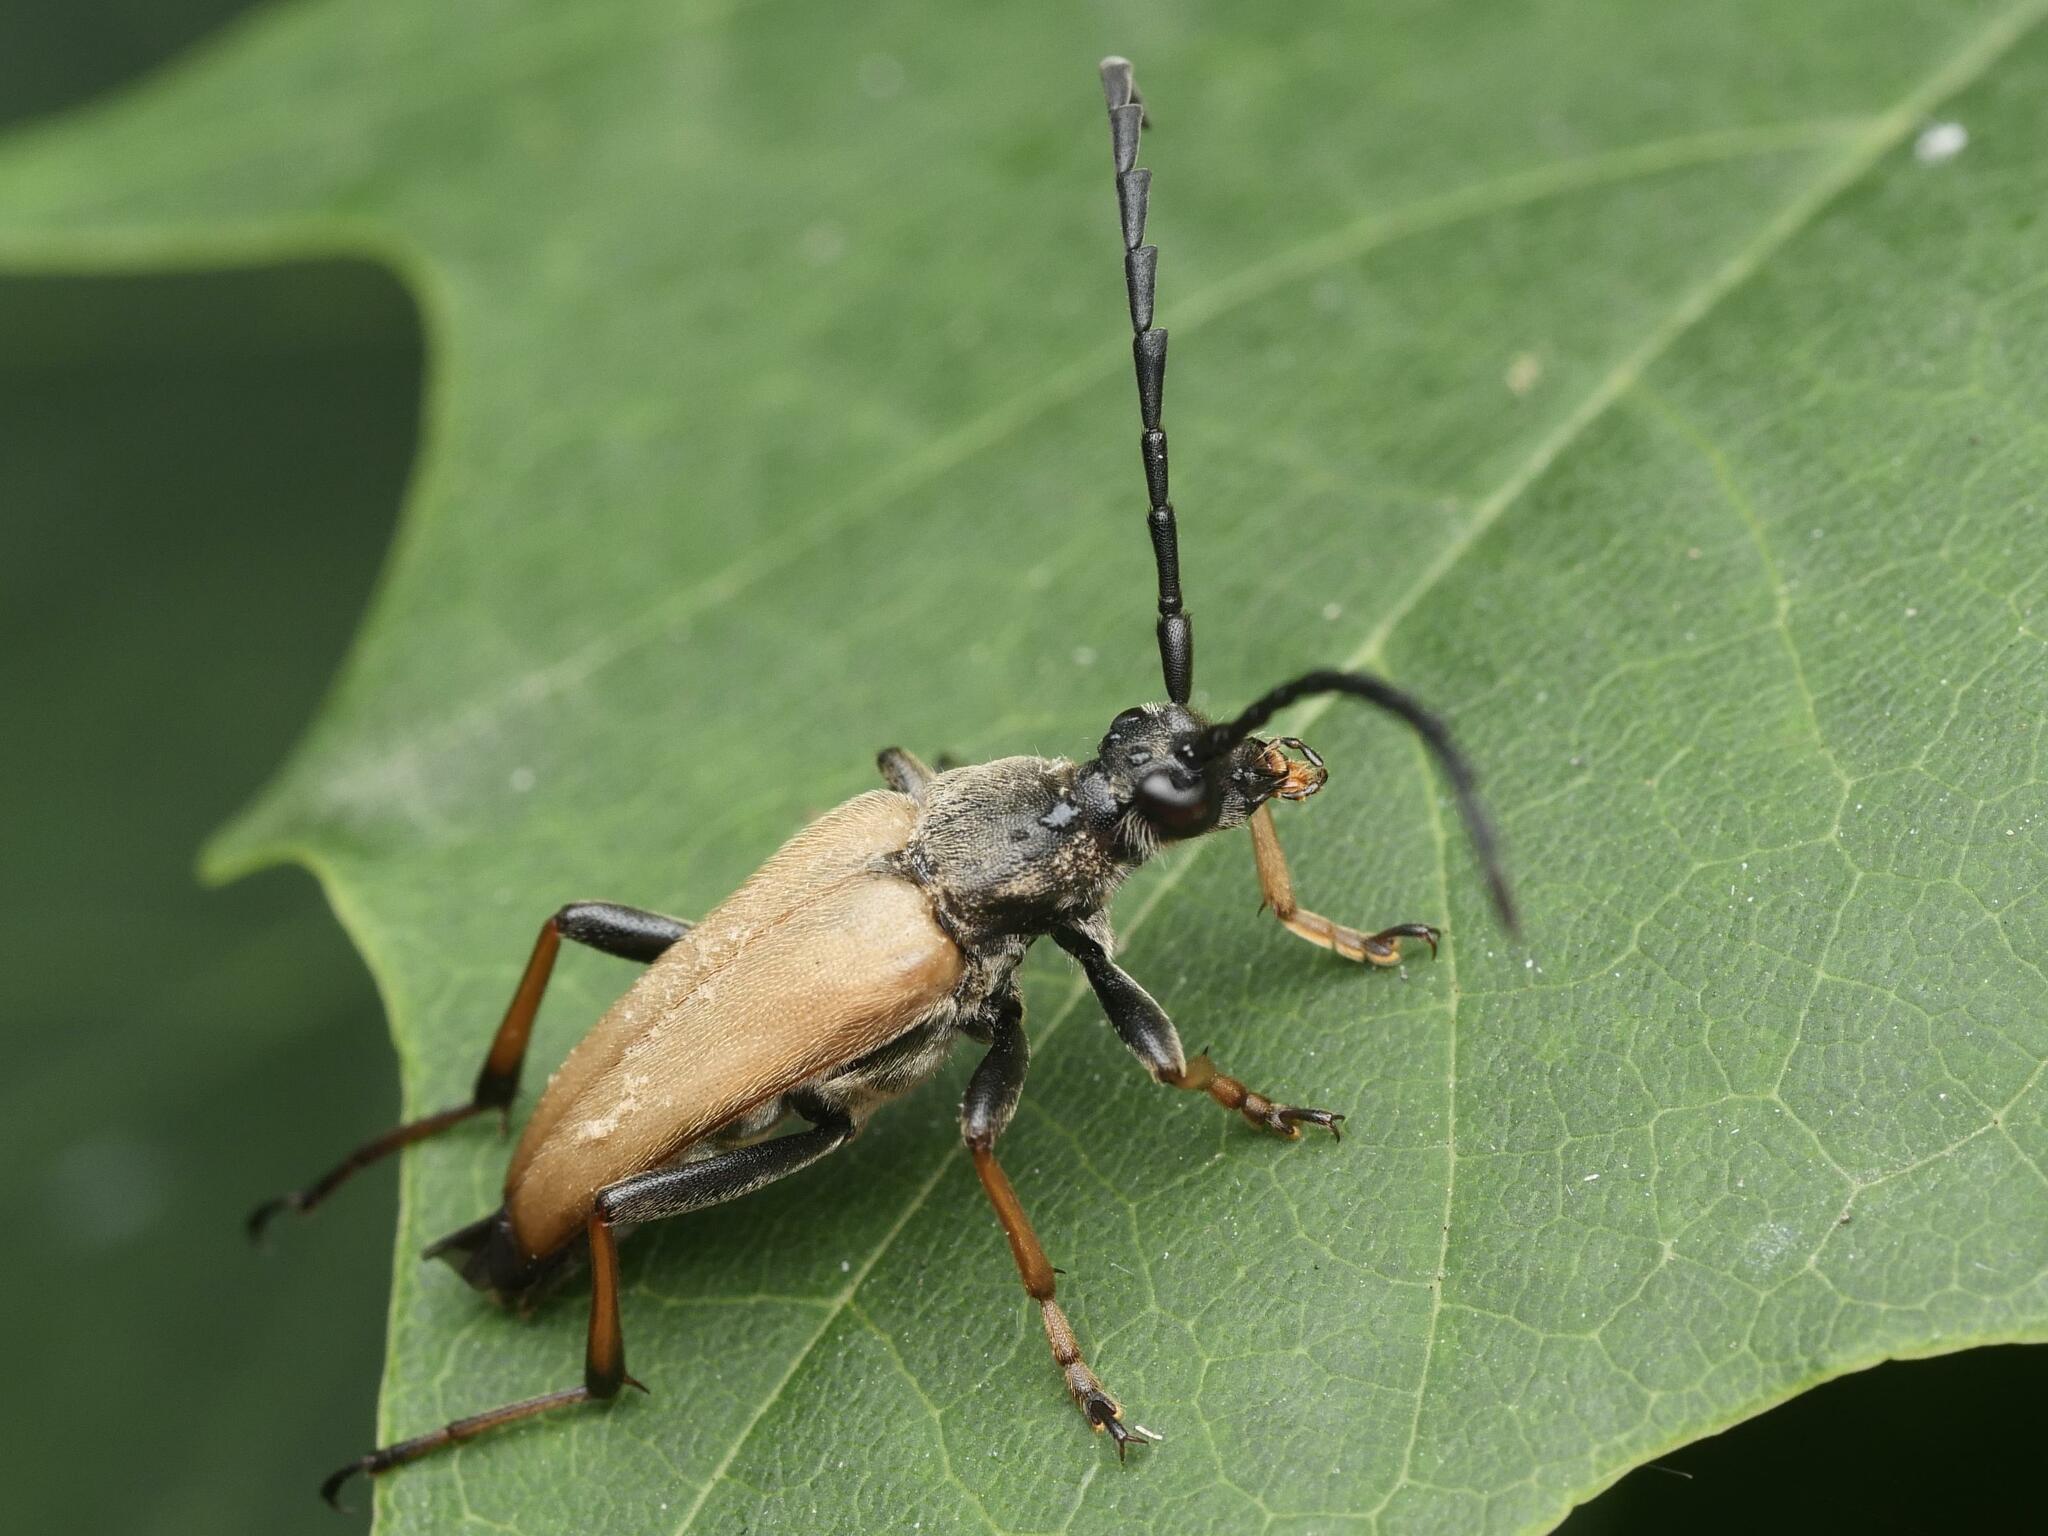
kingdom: Animalia
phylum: Arthropoda
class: Insecta
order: Coleoptera
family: Cerambycidae
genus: Stictoleptura
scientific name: Stictoleptura rubra
